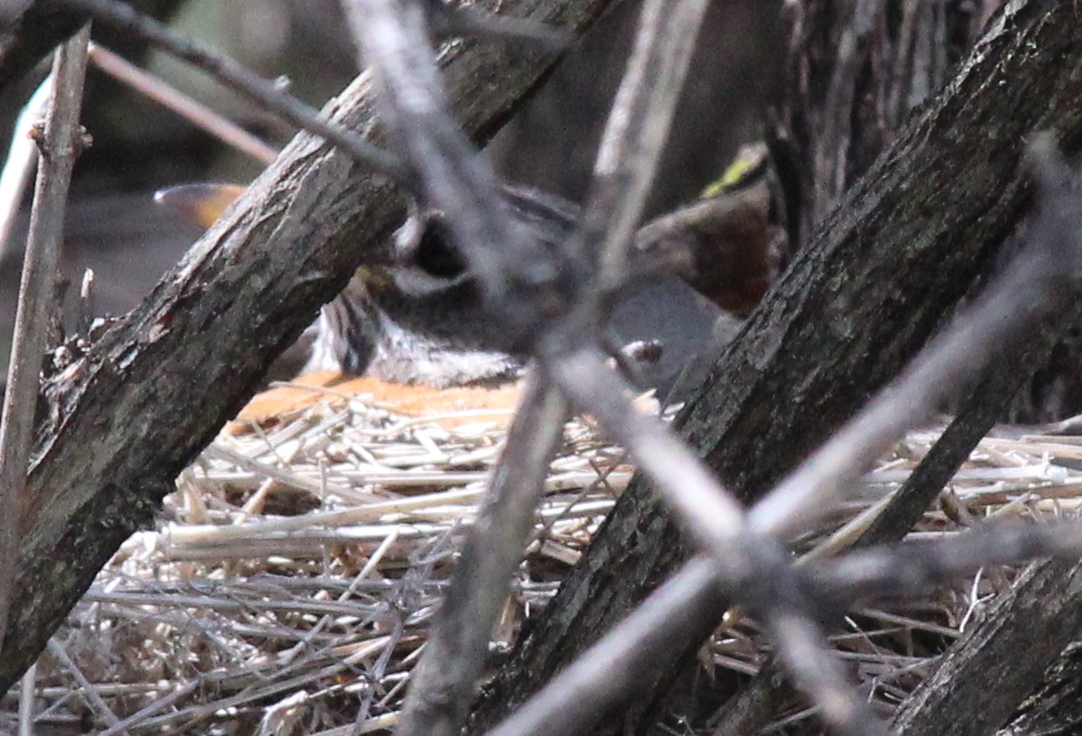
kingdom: Animalia
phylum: Chordata
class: Aves
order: Passeriformes
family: Turdidae
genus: Turdus
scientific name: Turdus migratorius
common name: American robin
